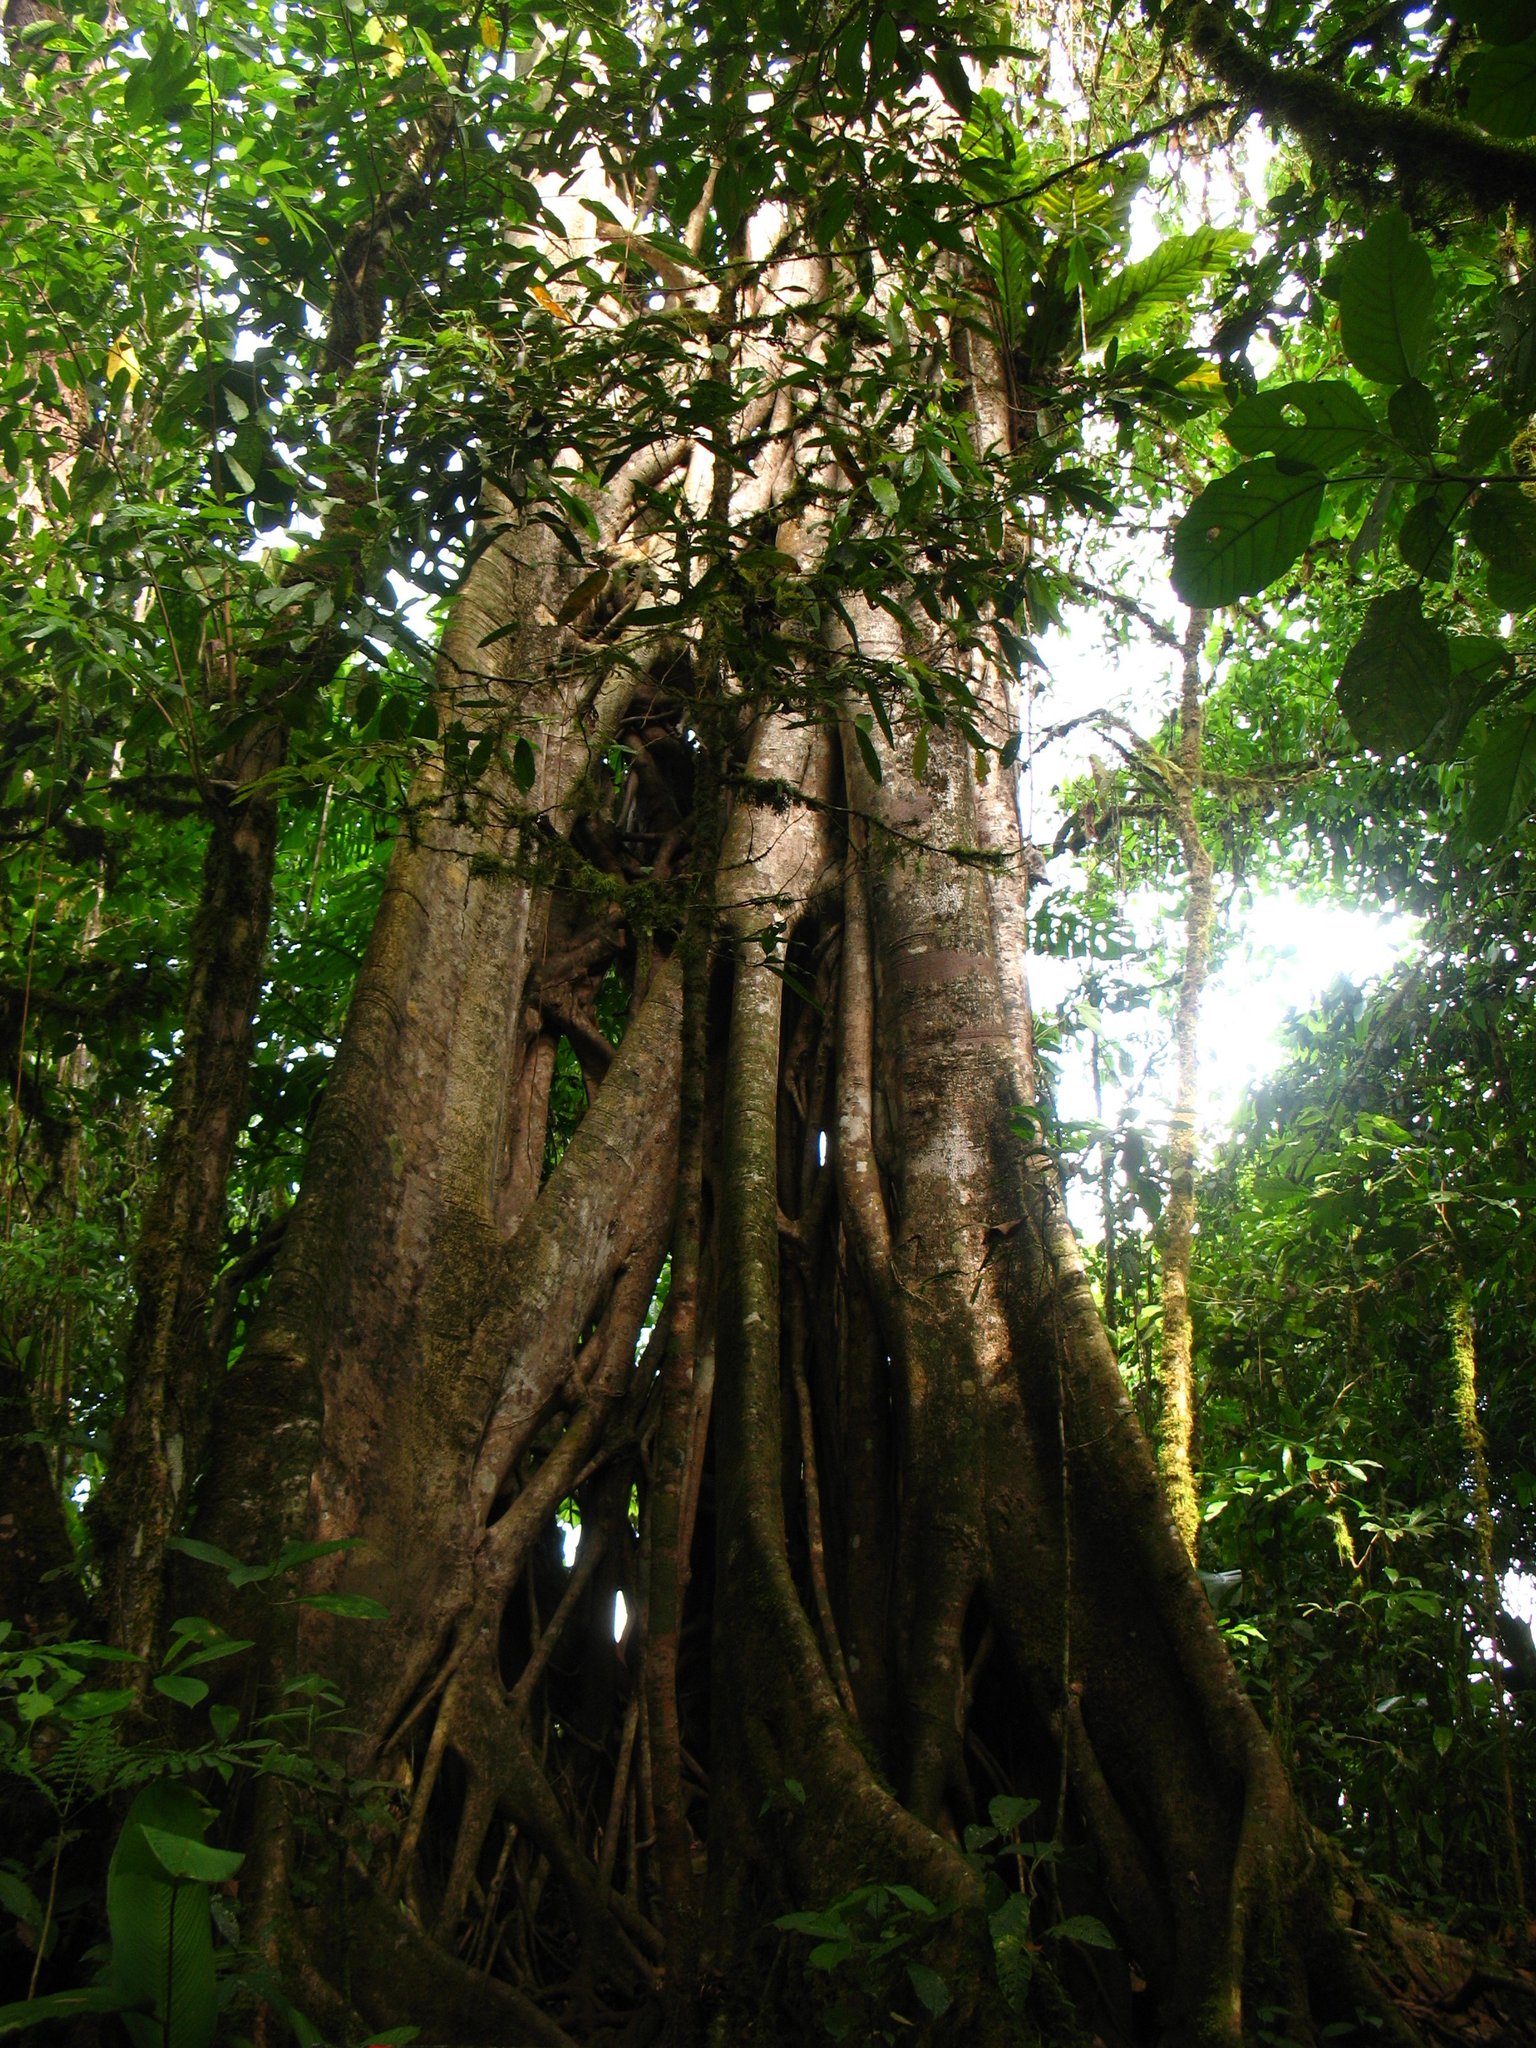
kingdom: Plantae
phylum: Tracheophyta
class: Magnoliopsida
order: Rosales
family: Moraceae
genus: Ficus
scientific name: Ficus aurea
